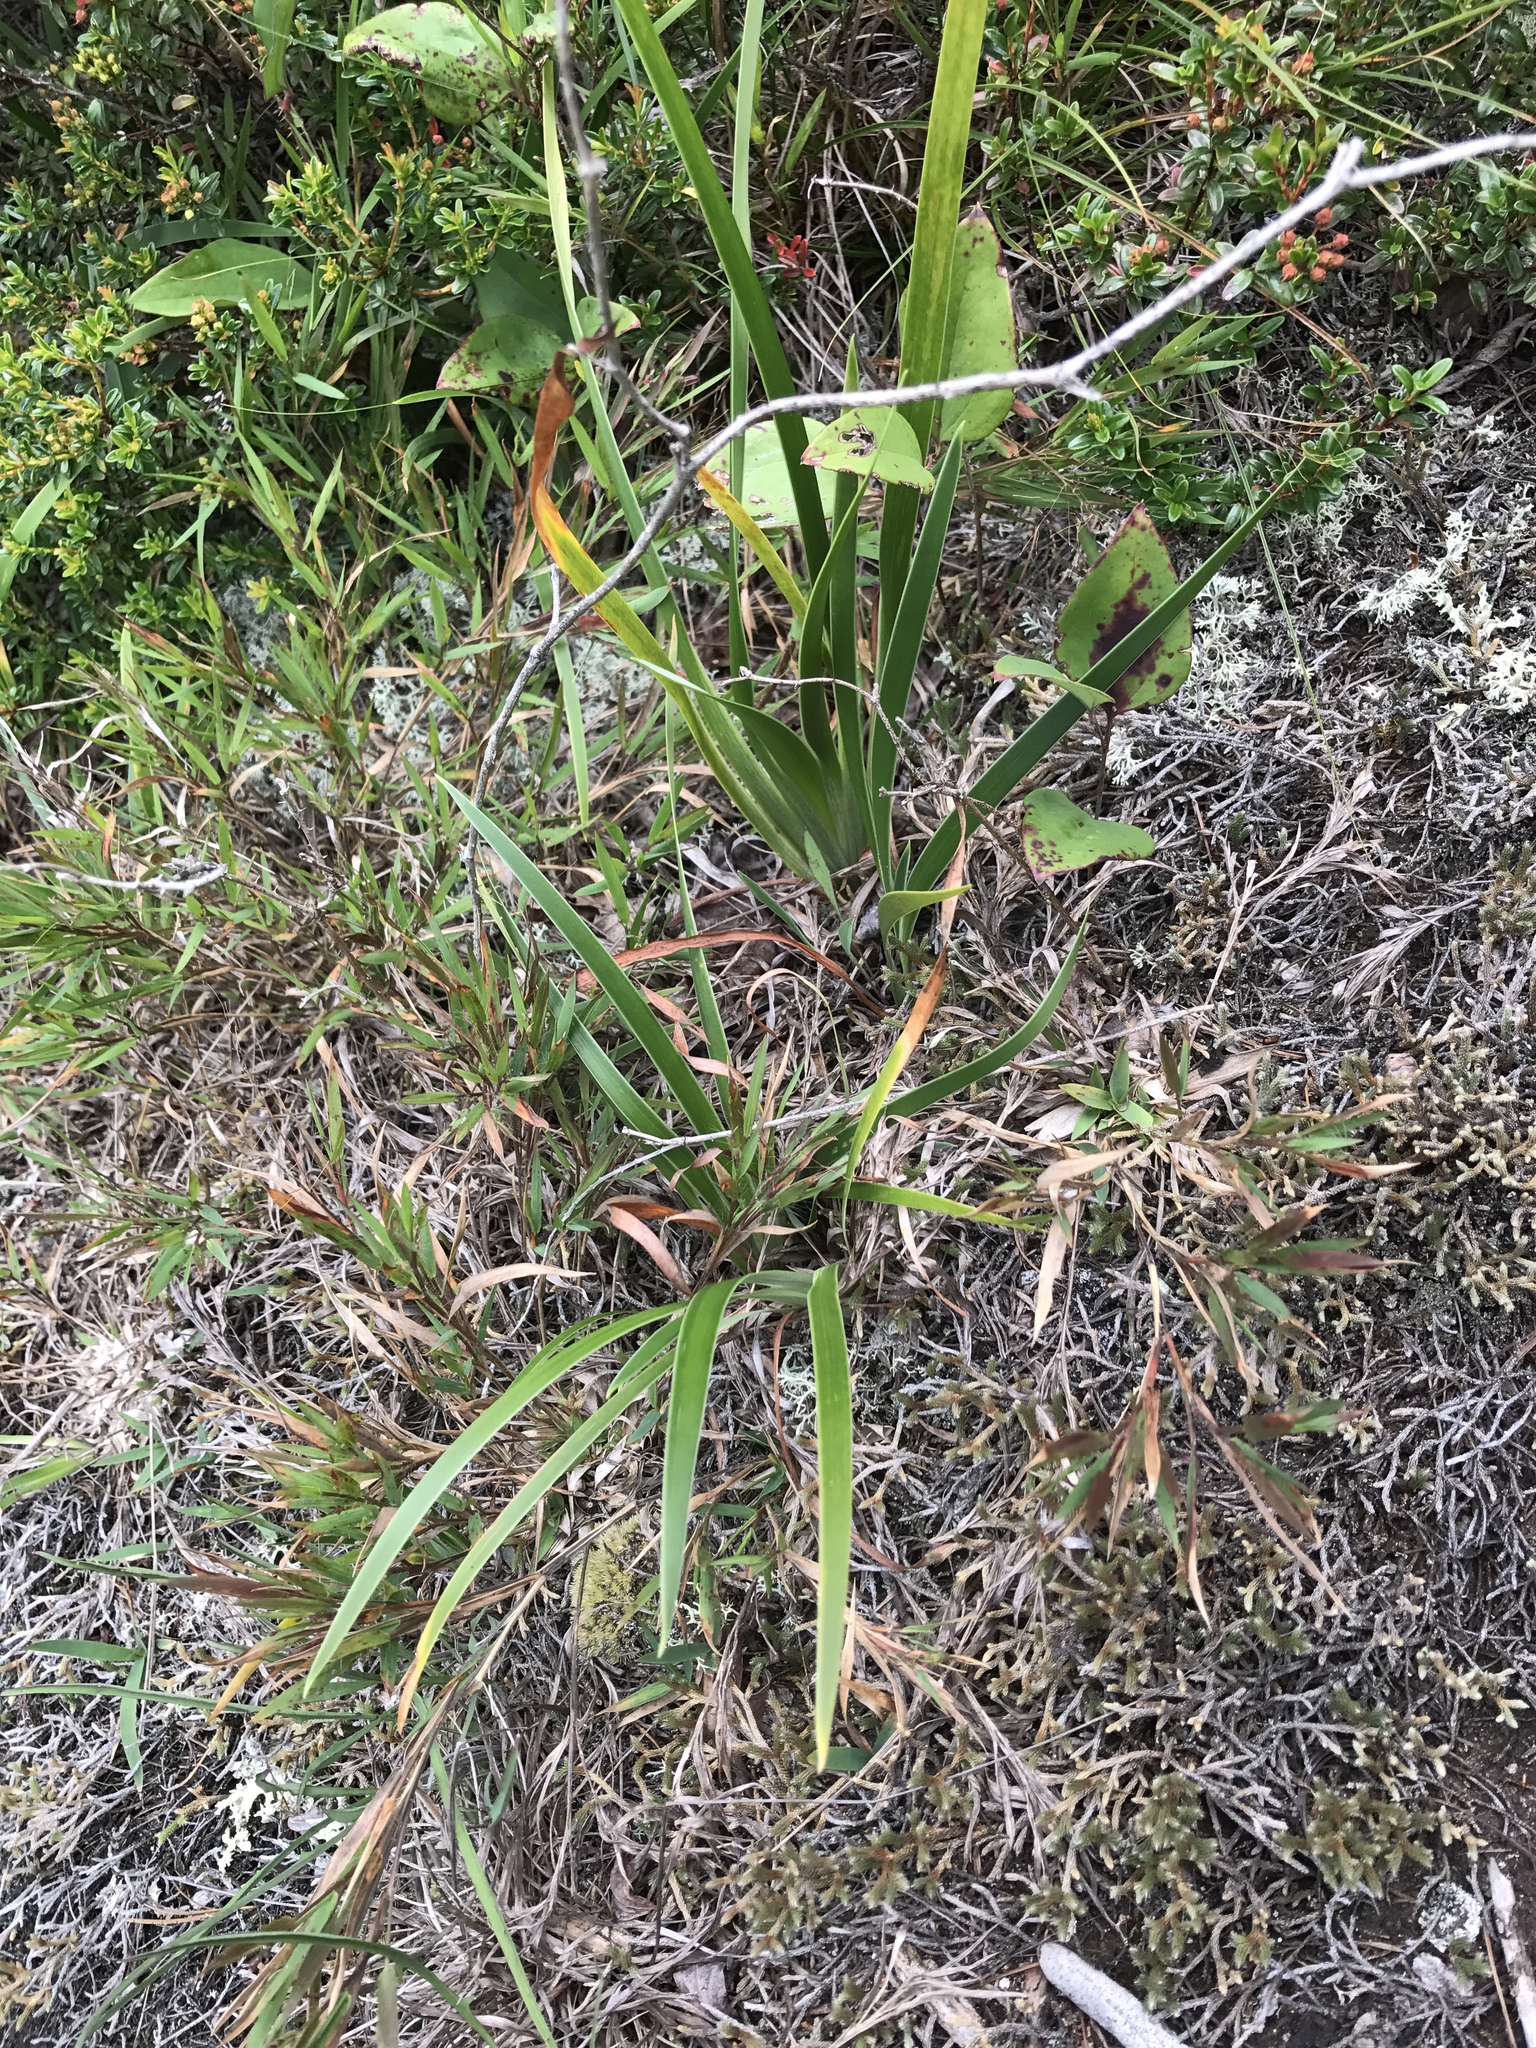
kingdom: Plantae
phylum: Tracheophyta
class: Liliopsida
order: Asparagales
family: Iridaceae
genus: Iris
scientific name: Iris verna
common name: Dwarf iris
